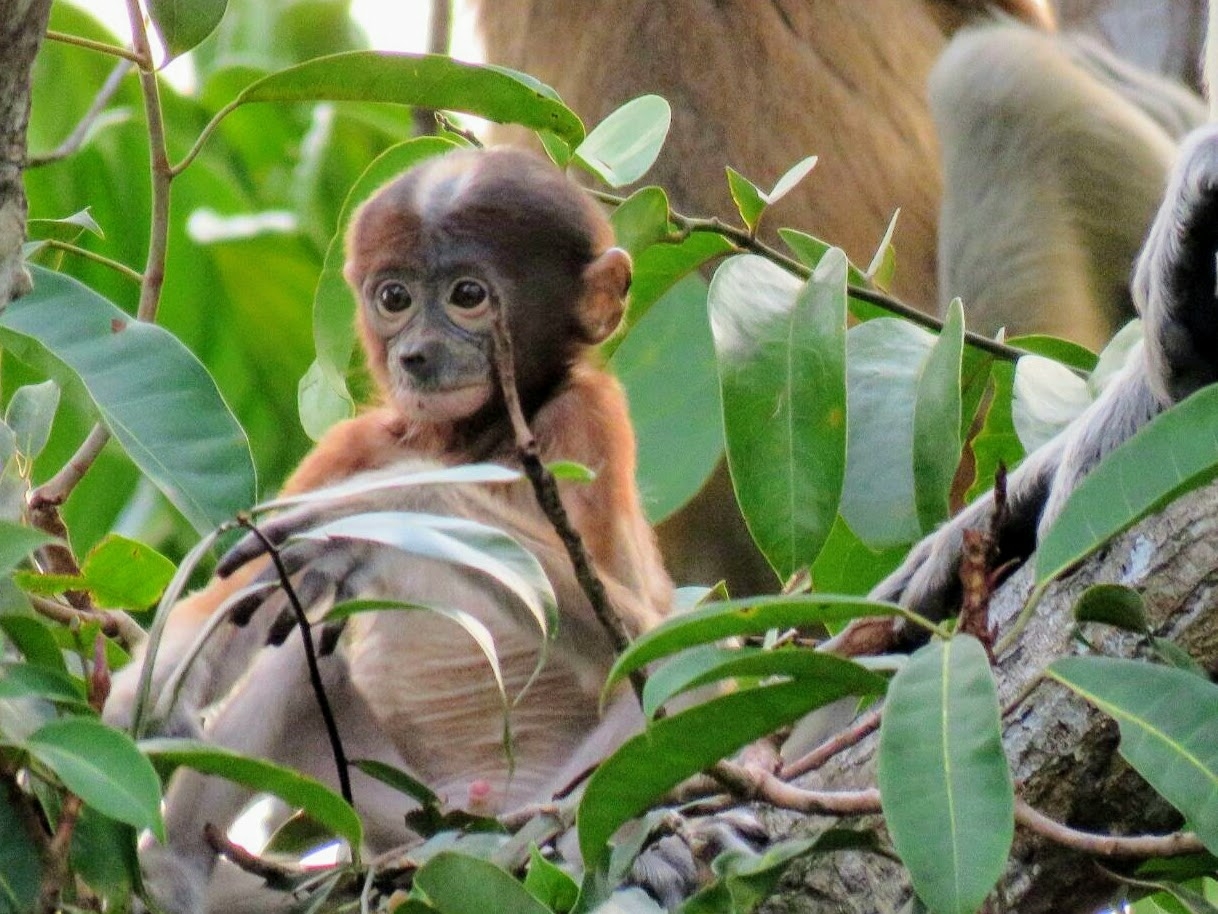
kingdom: Animalia
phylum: Chordata
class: Mammalia
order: Primates
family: Cercopithecidae
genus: Nasalis
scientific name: Nasalis larvatus
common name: Proboscis monkey
